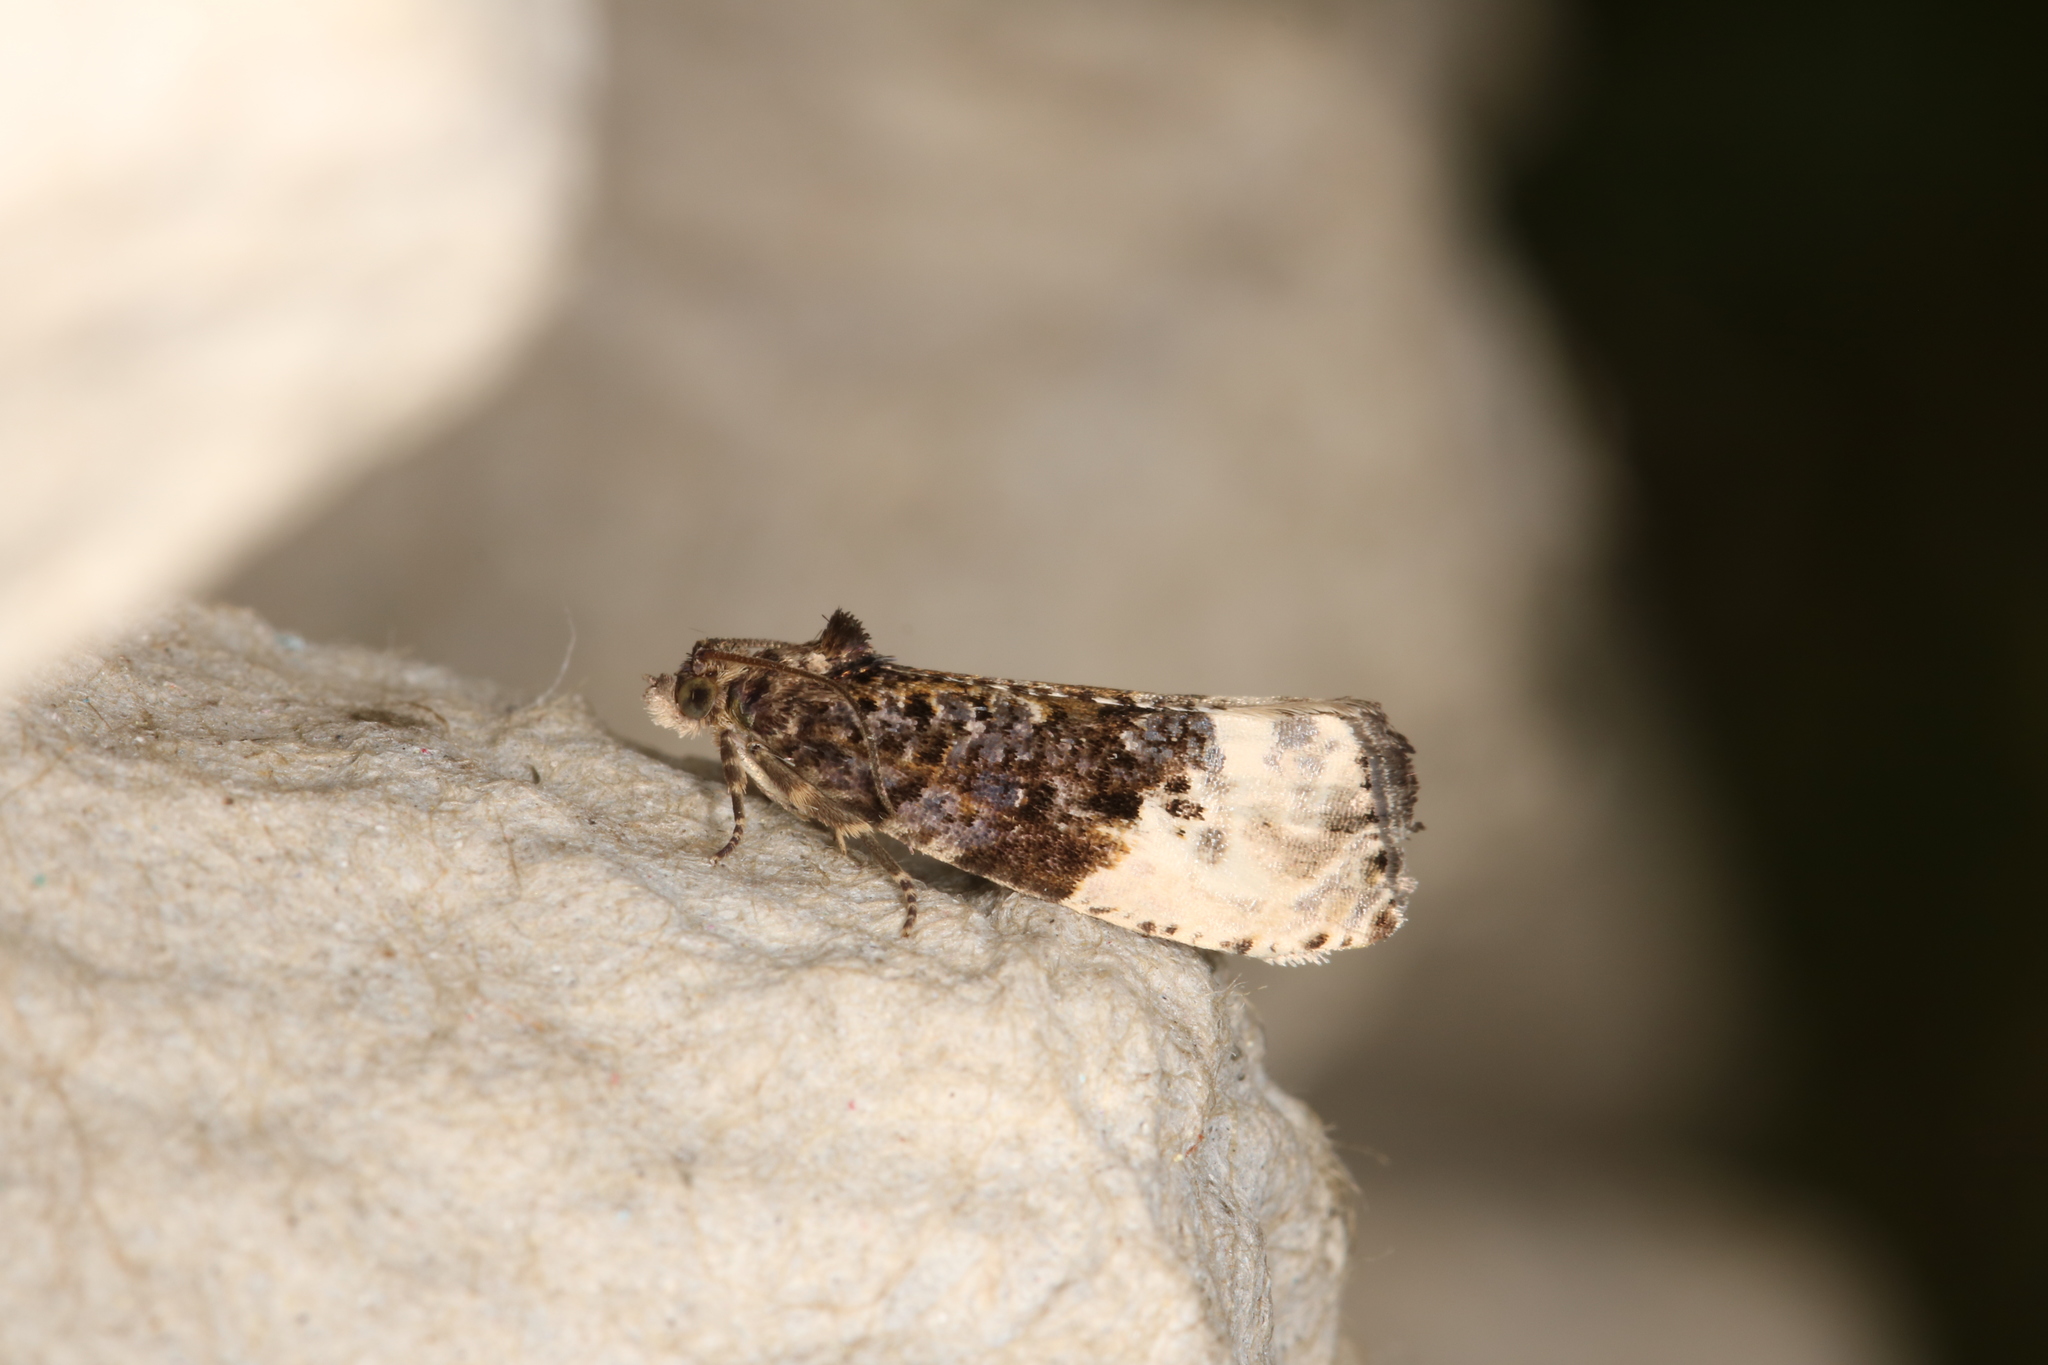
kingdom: Animalia
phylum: Arthropoda
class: Insecta
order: Lepidoptera
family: Tortricidae
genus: Hedya
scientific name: Hedya nubiferana
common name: Marbled orchard tortrix
